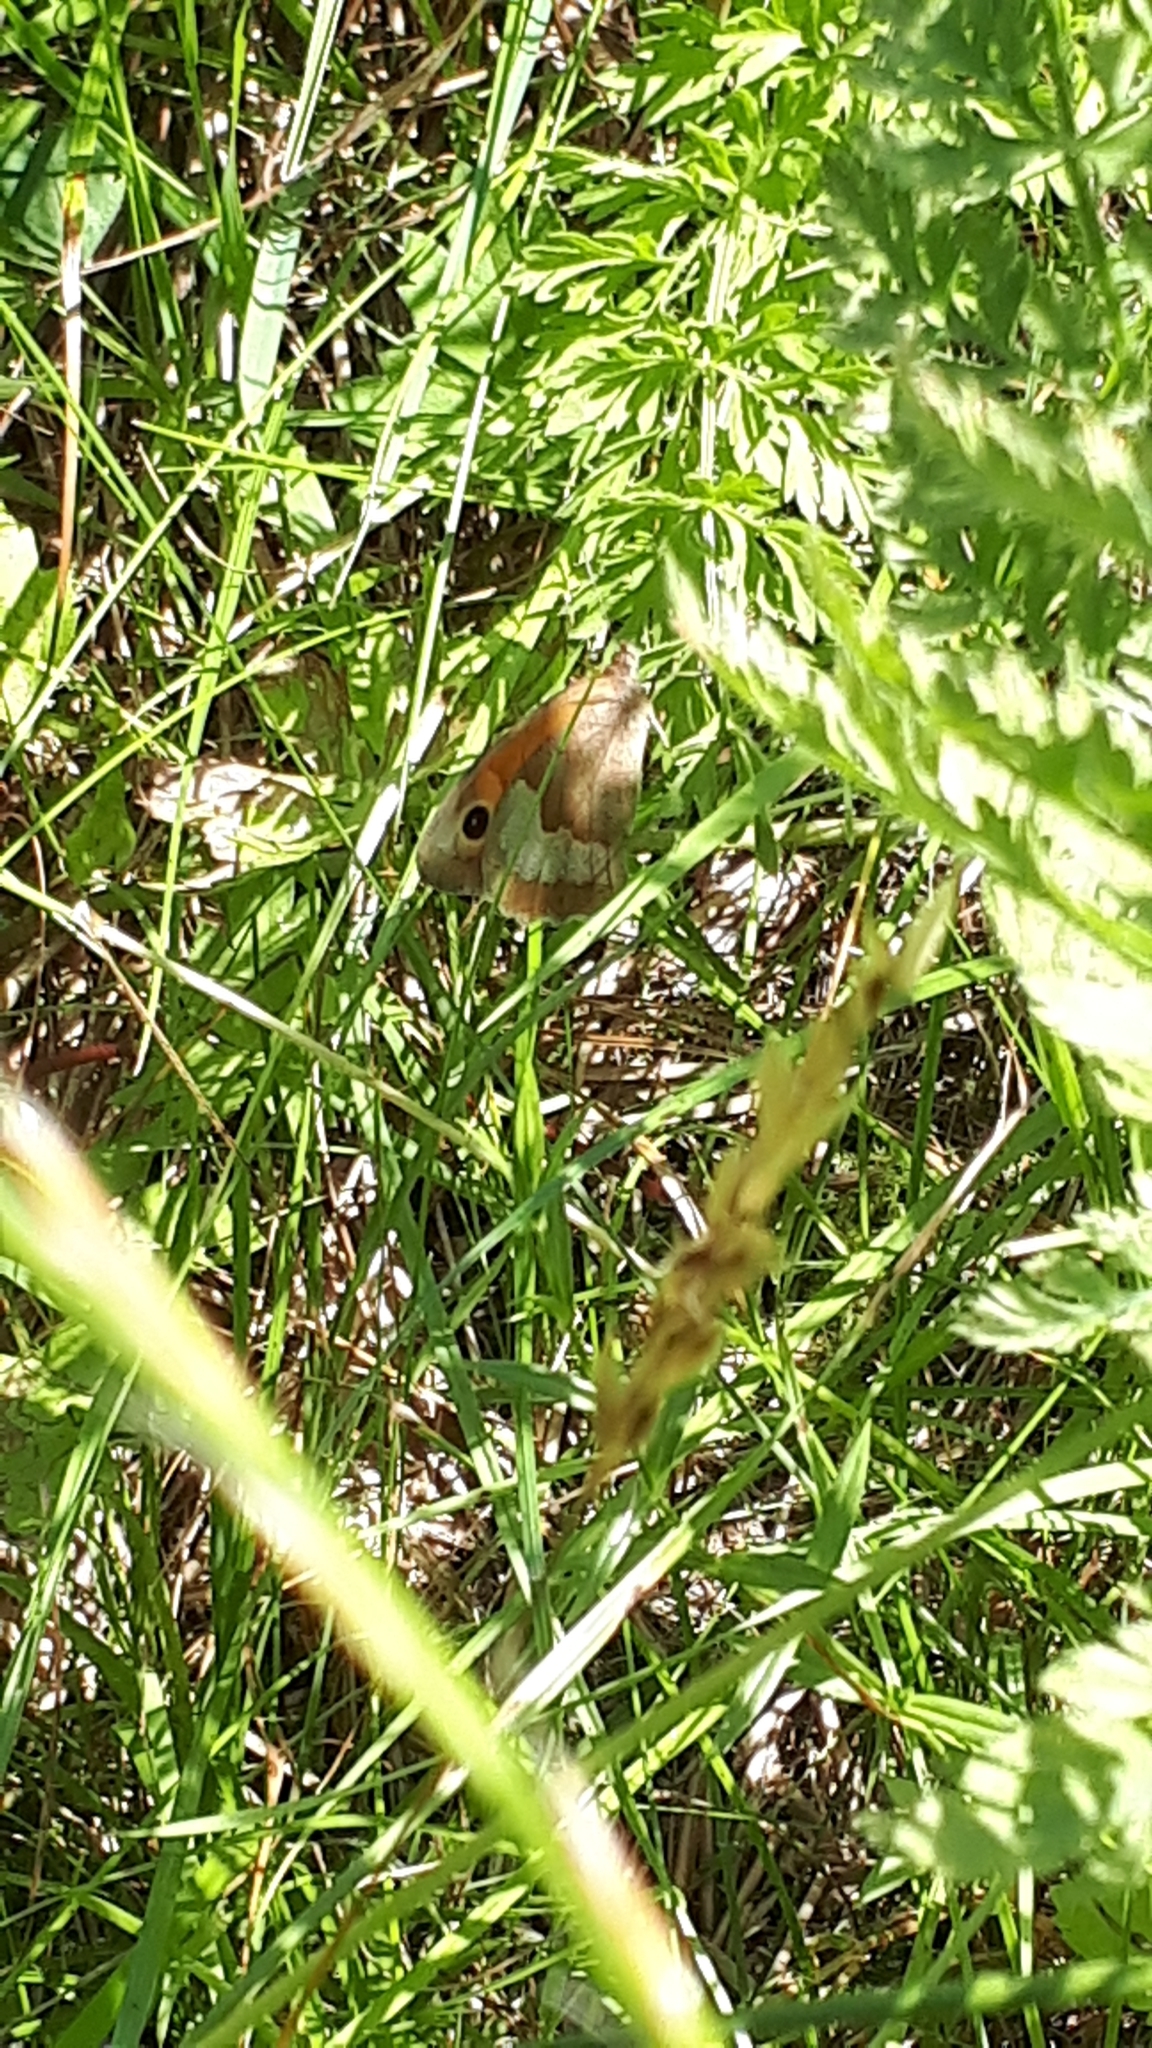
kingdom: Animalia
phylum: Arthropoda
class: Insecta
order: Lepidoptera
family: Nymphalidae
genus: Maniola
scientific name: Maniola jurtina
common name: Meadow brown
